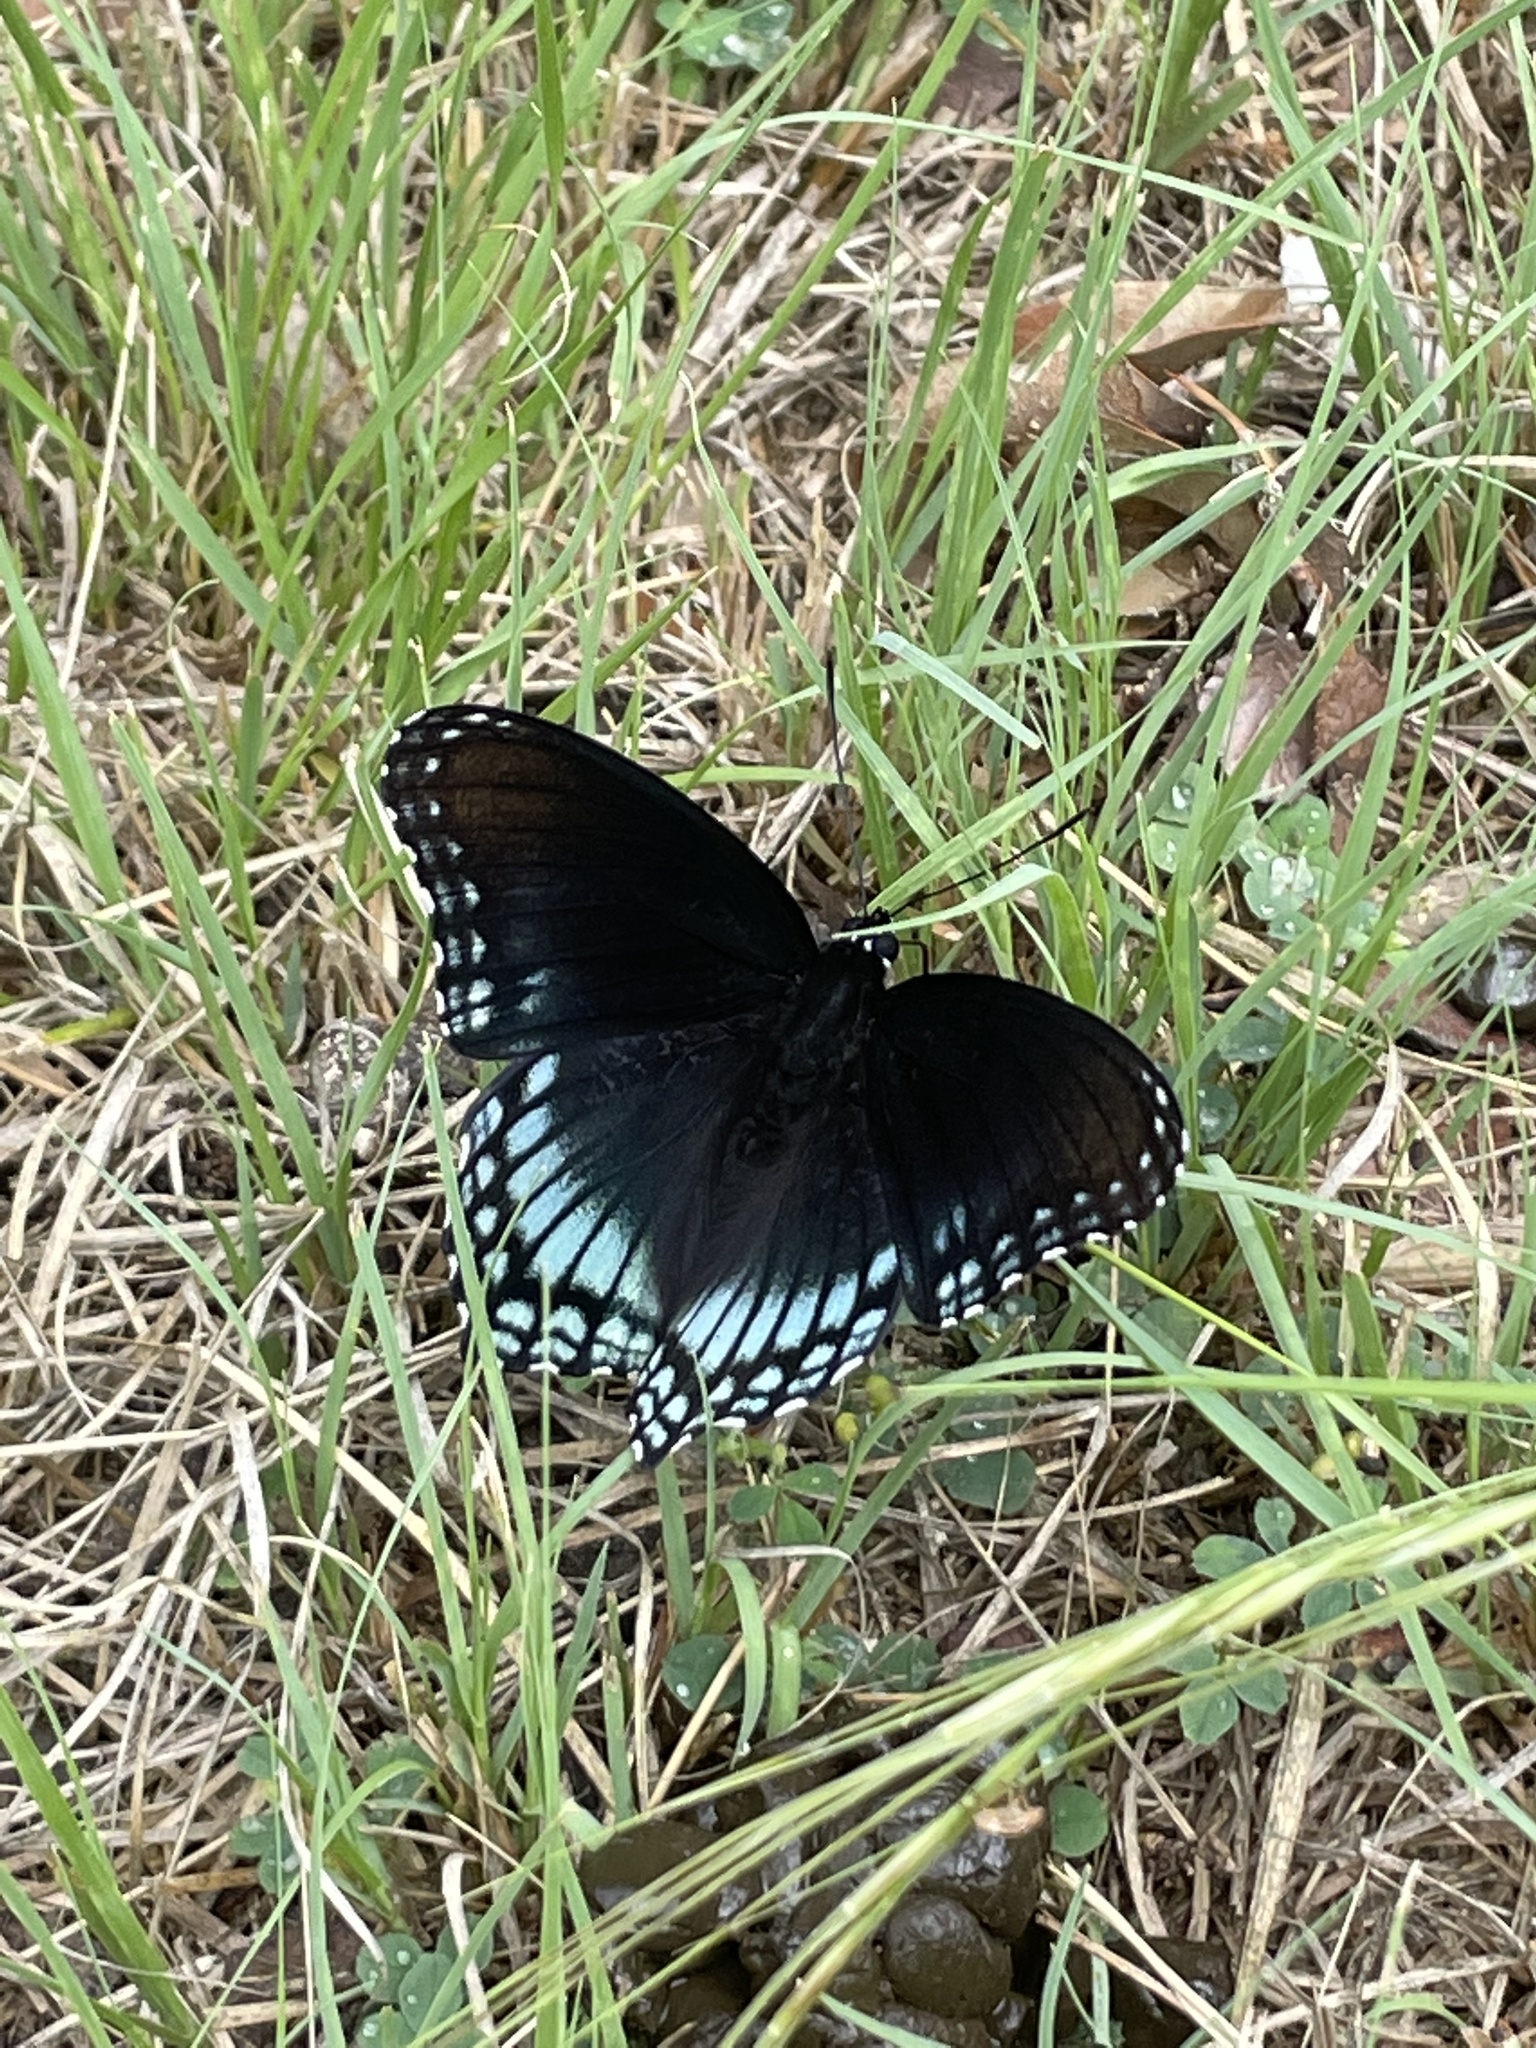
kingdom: Animalia
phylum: Arthropoda
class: Insecta
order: Lepidoptera
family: Nymphalidae
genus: Limenitis
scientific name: Limenitis astyanax
